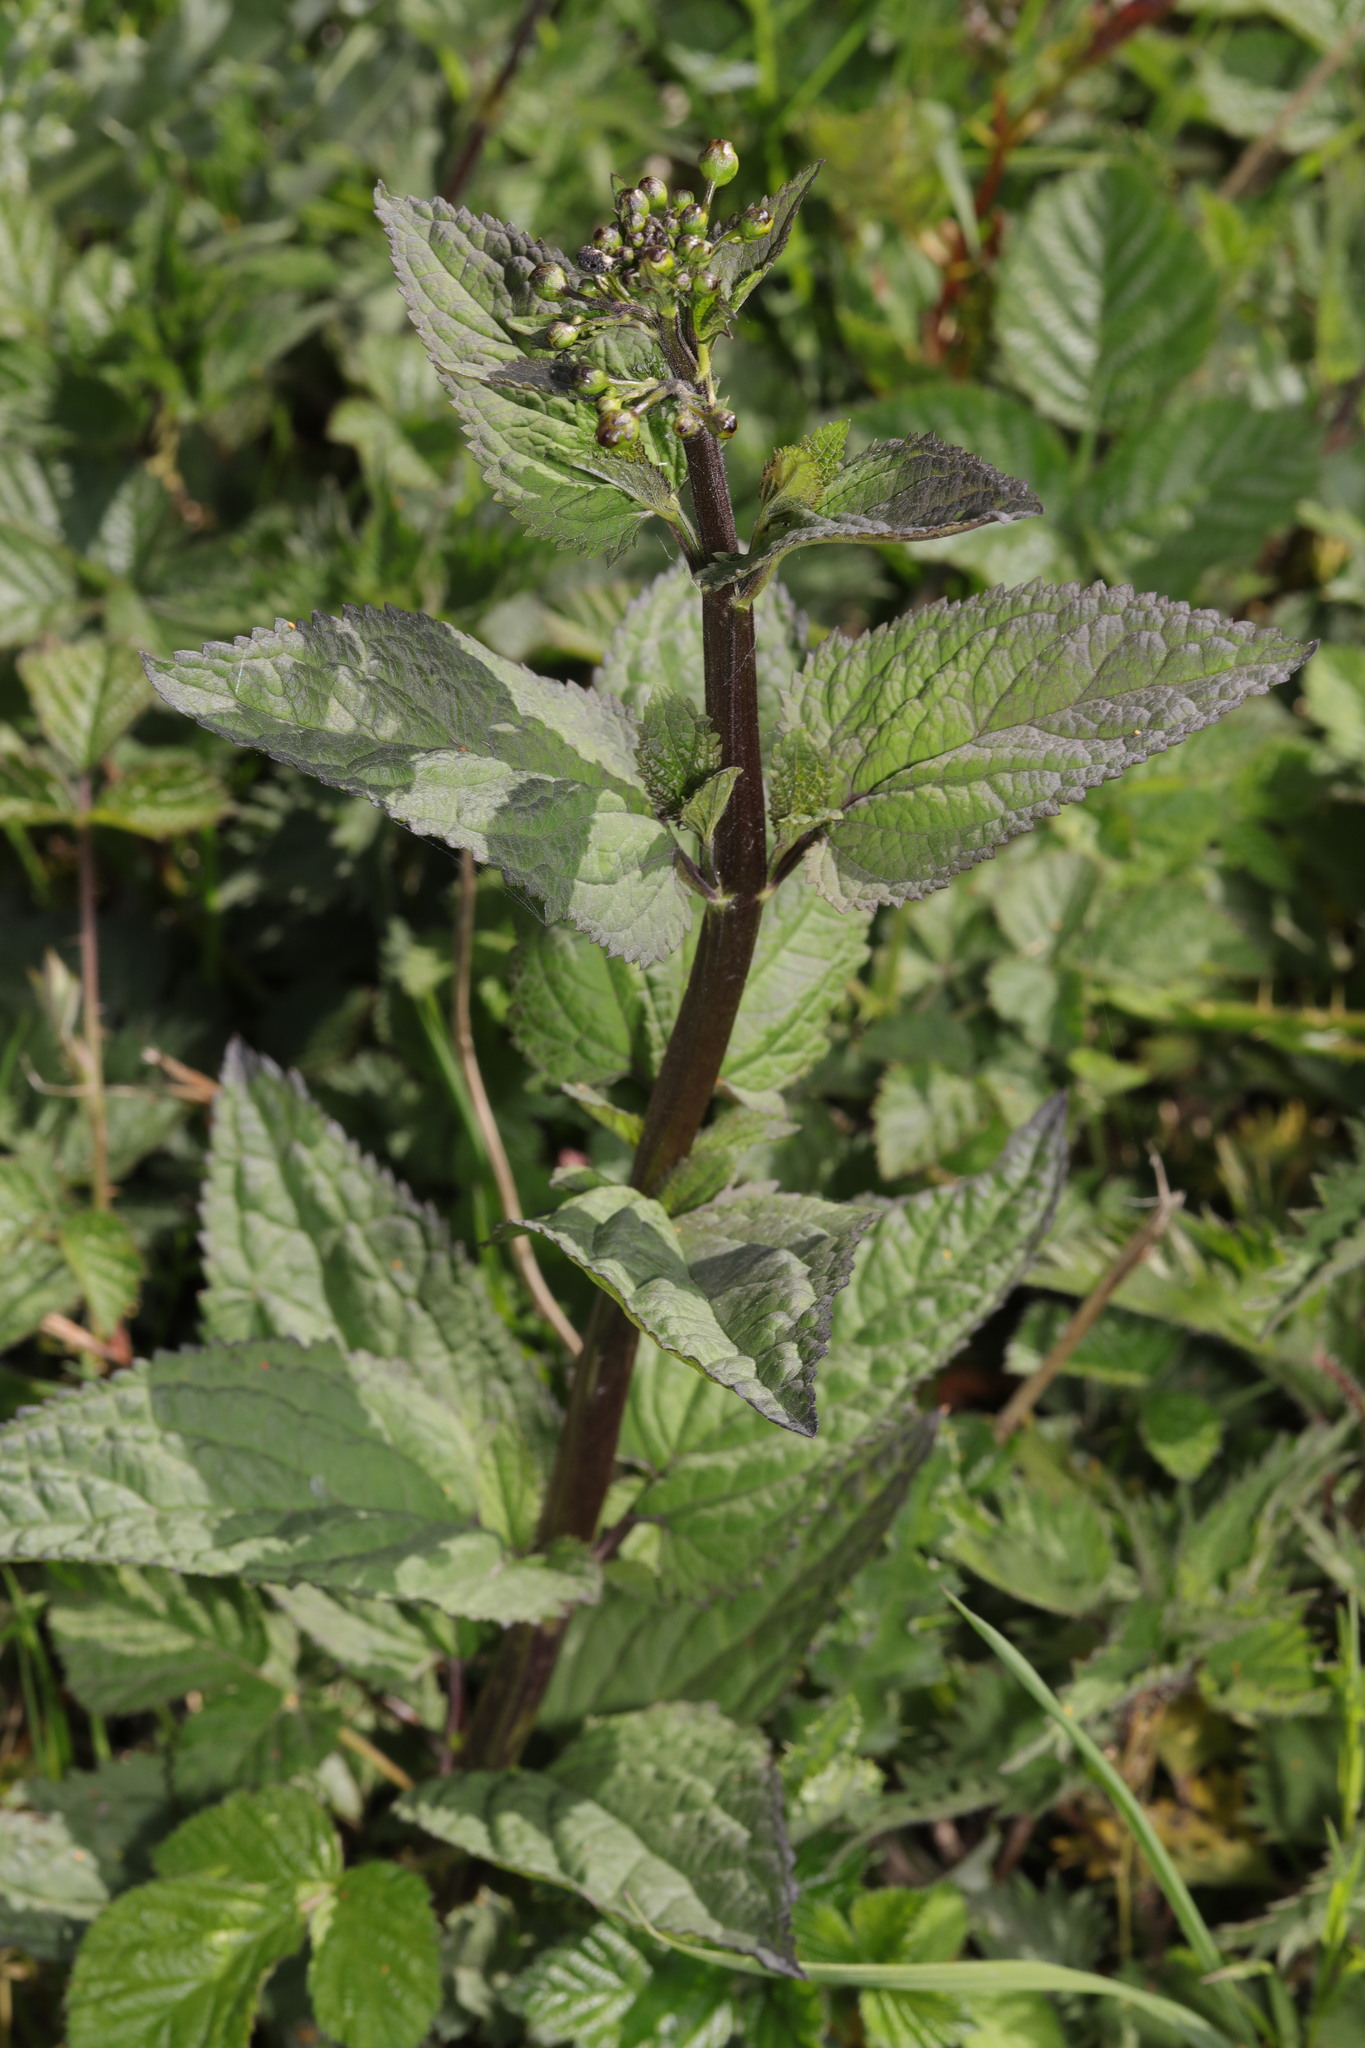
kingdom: Plantae
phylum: Tracheophyta
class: Magnoliopsida
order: Lamiales
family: Scrophulariaceae
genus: Scrophularia
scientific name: Scrophularia nodosa
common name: Common figwort
